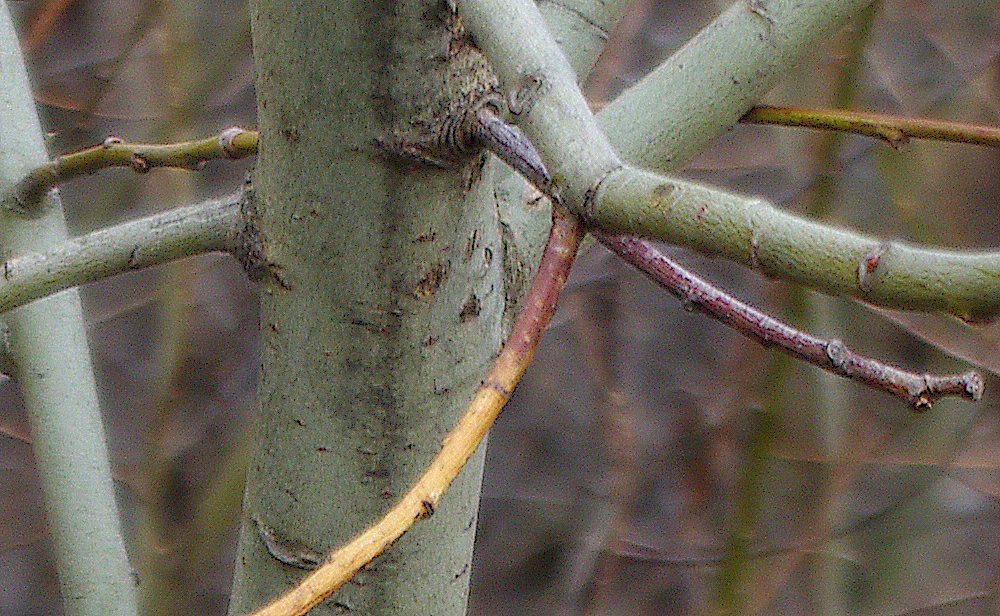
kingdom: Plantae
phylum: Tracheophyta
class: Magnoliopsida
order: Malpighiales
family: Salicaceae
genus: Salix
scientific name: Salix caprea
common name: Goat willow
